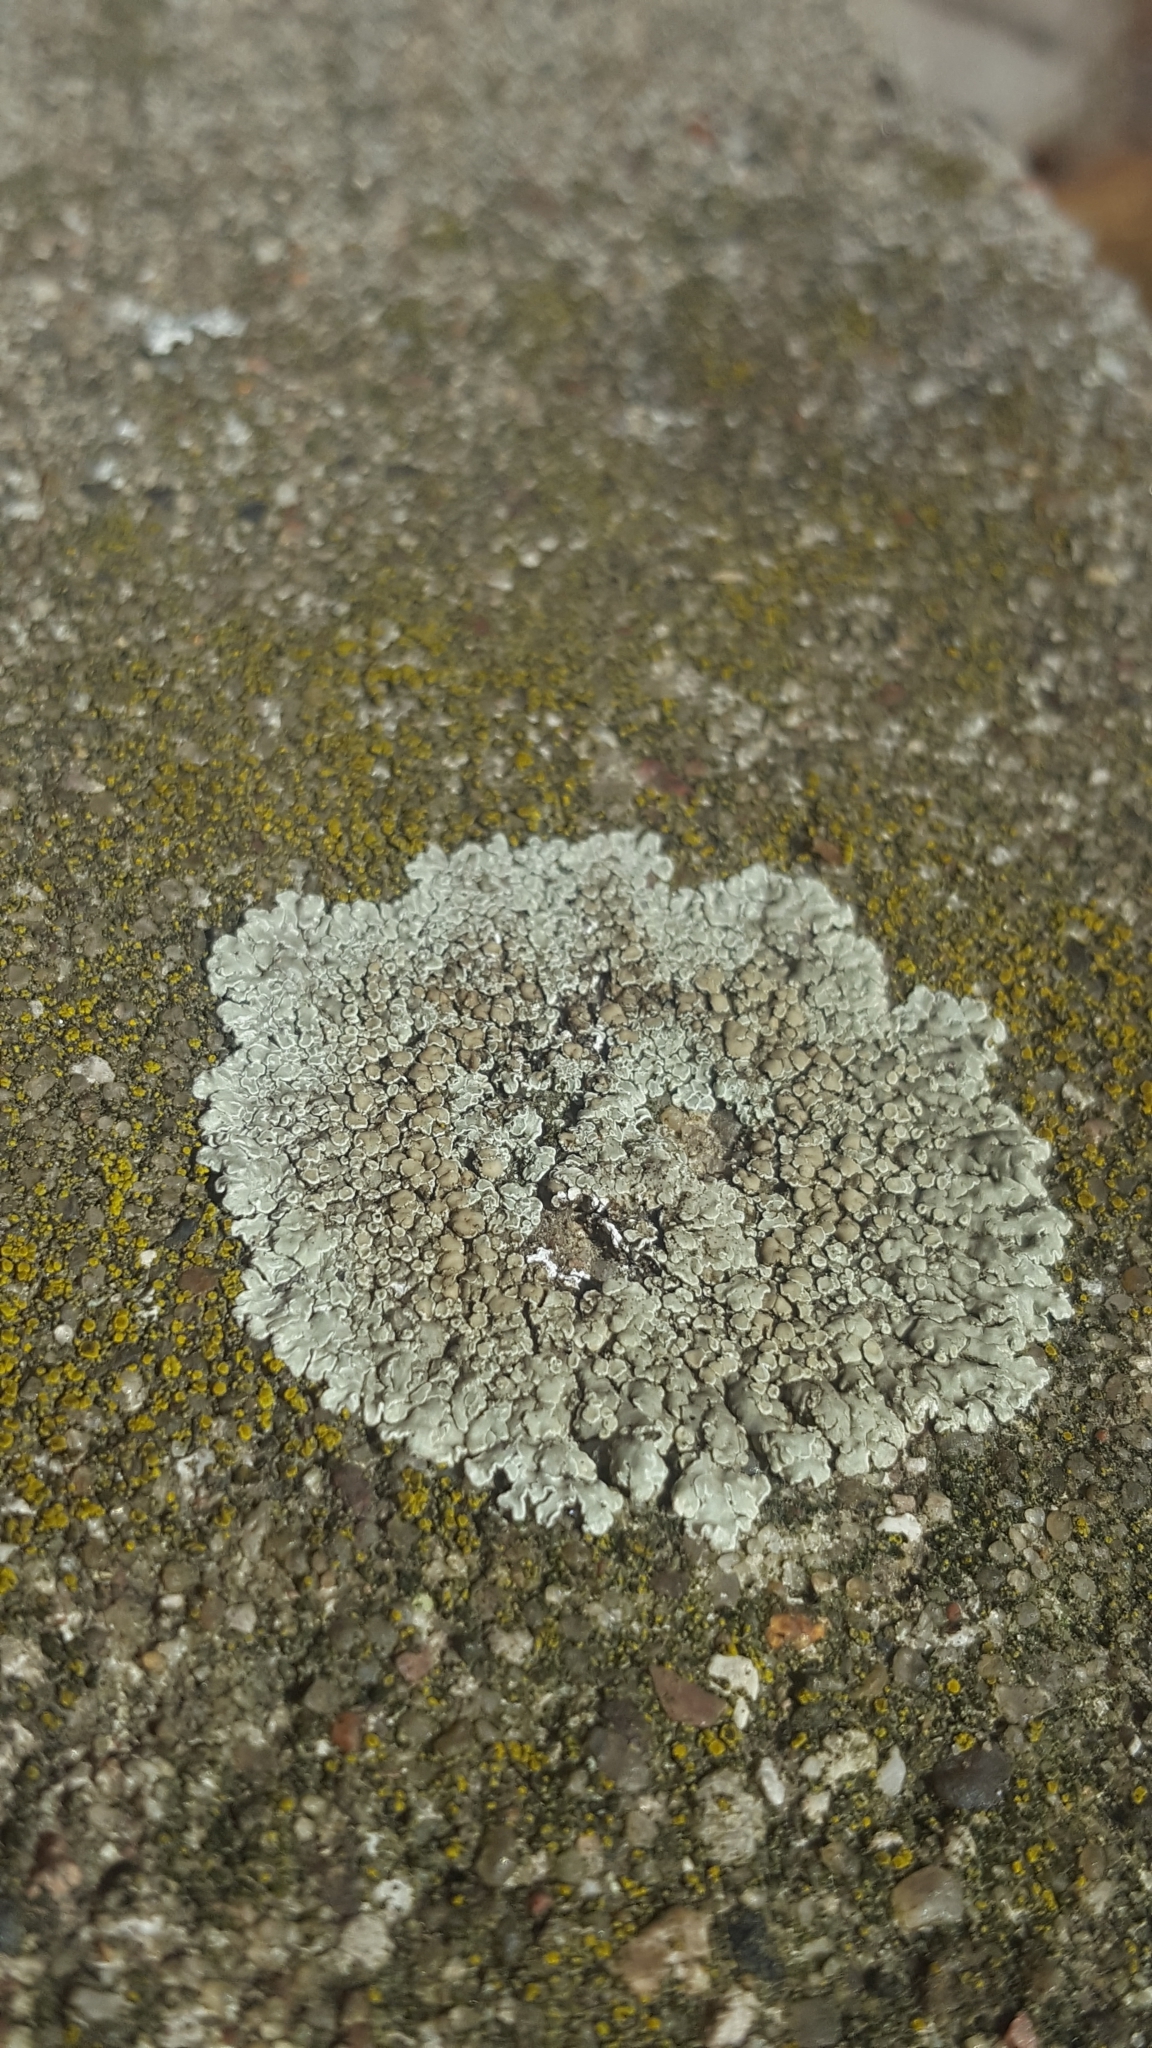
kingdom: Fungi
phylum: Ascomycota
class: Lecanoromycetes
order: Lecanorales
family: Lecanoraceae
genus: Protoparmeliopsis
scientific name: Protoparmeliopsis muralis
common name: Stonewall rim lichen
